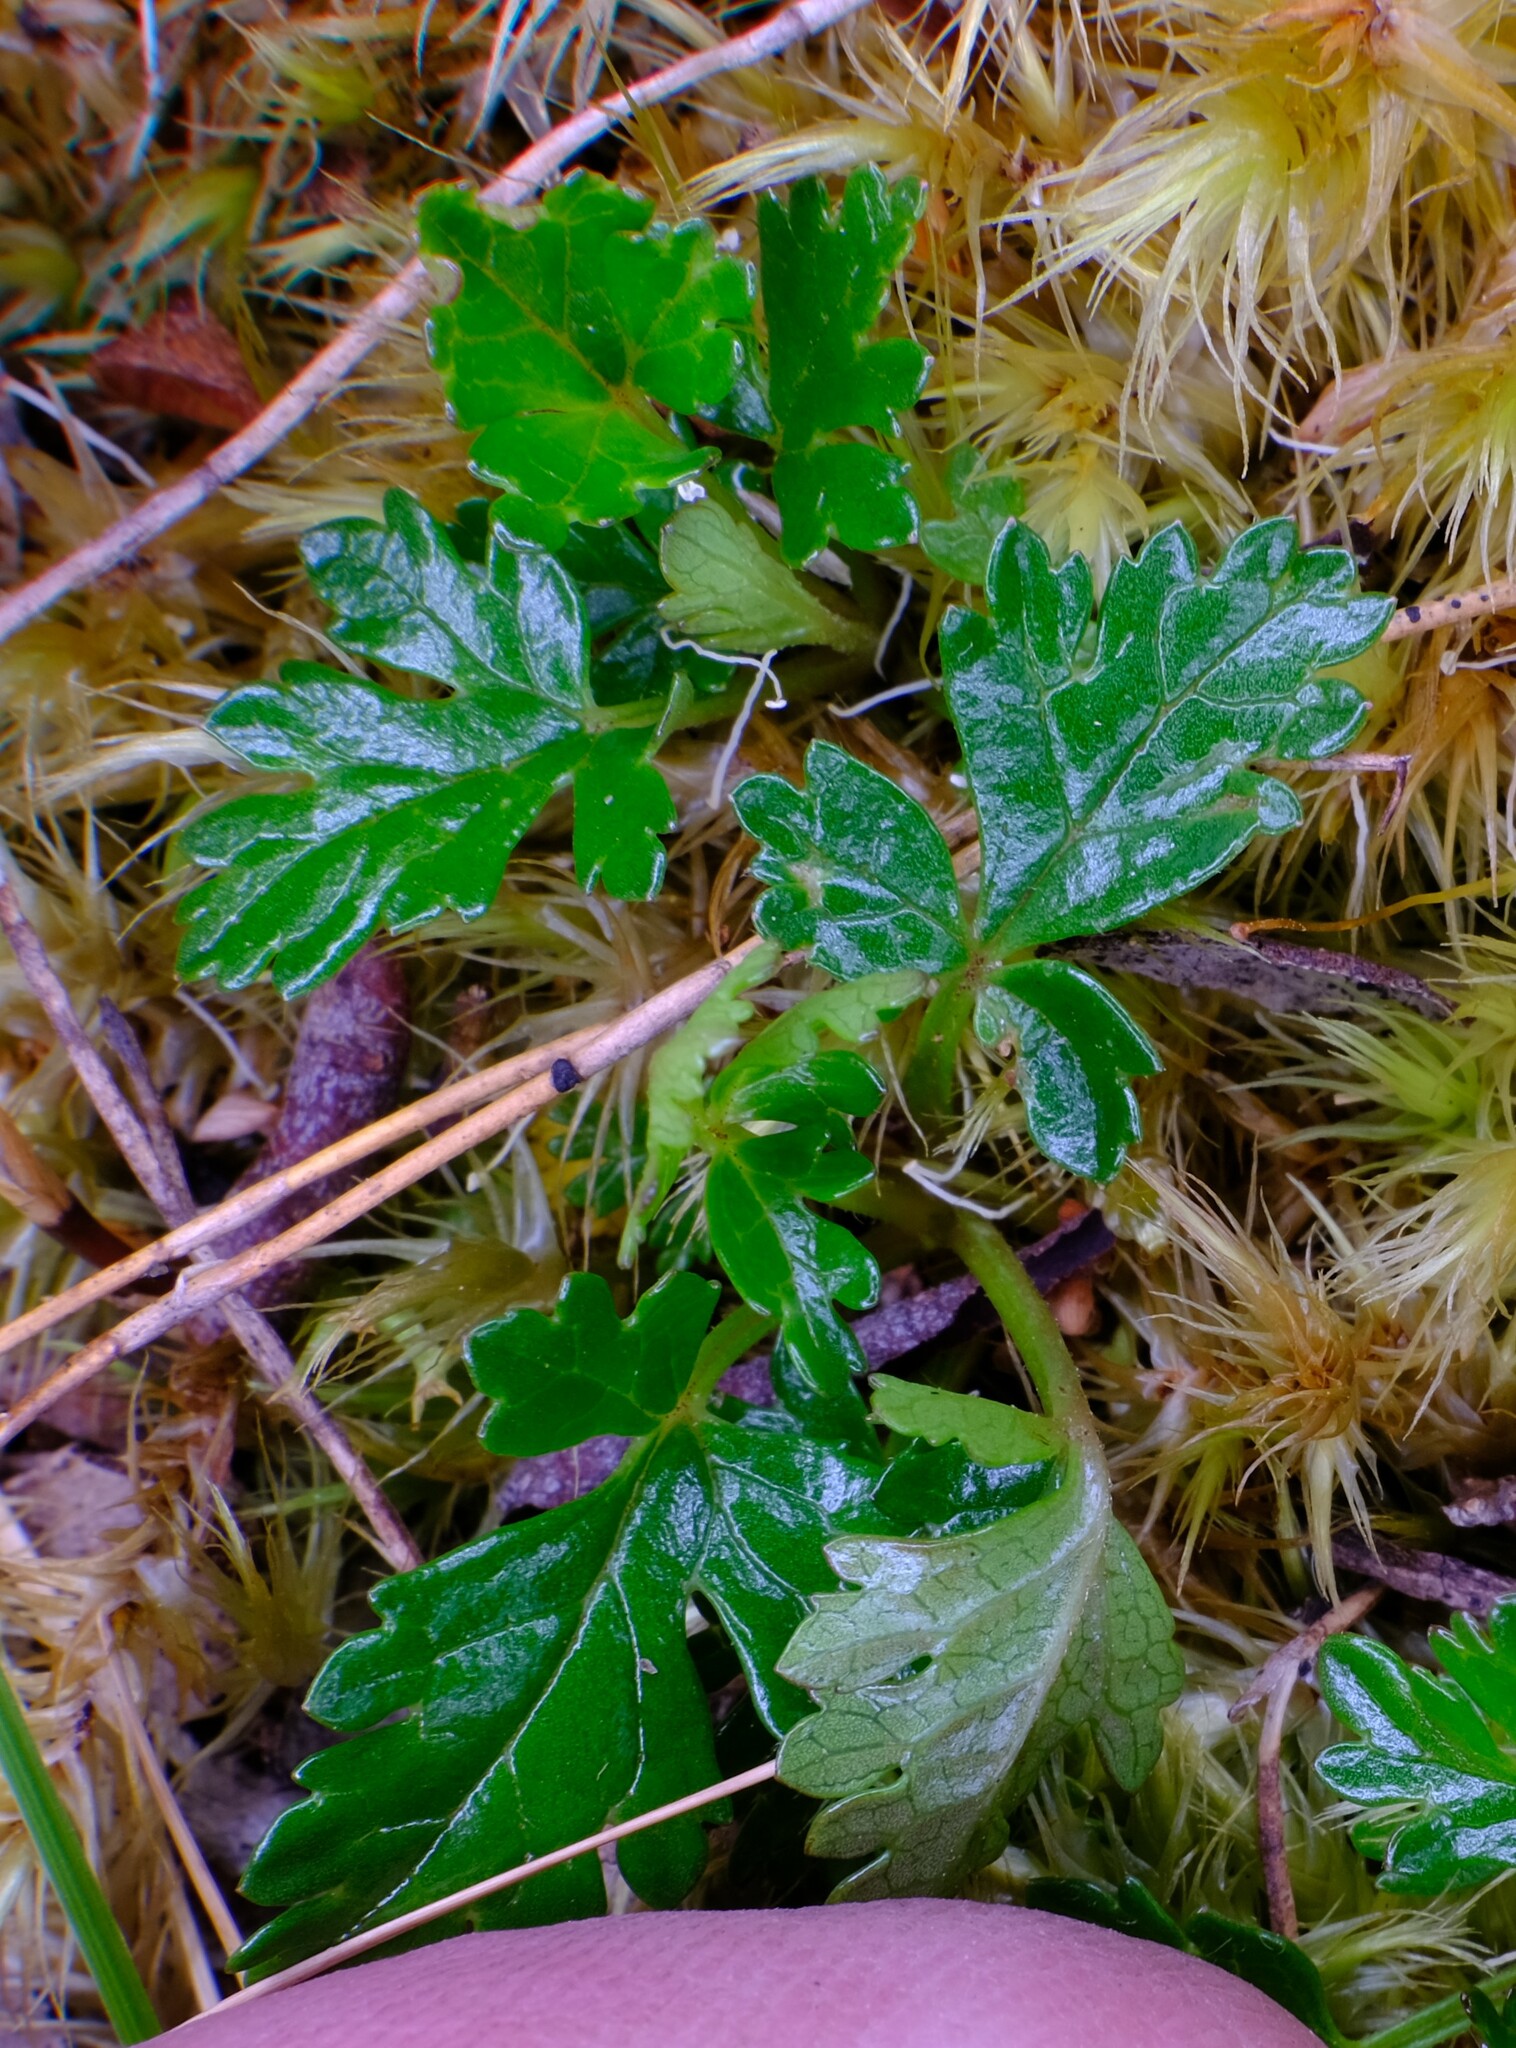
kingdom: Plantae
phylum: Tracheophyta
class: Magnoliopsida
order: Rosales
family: Rosaceae
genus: Rubus
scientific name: Rubus gunnianus
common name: Mountain raspberry
